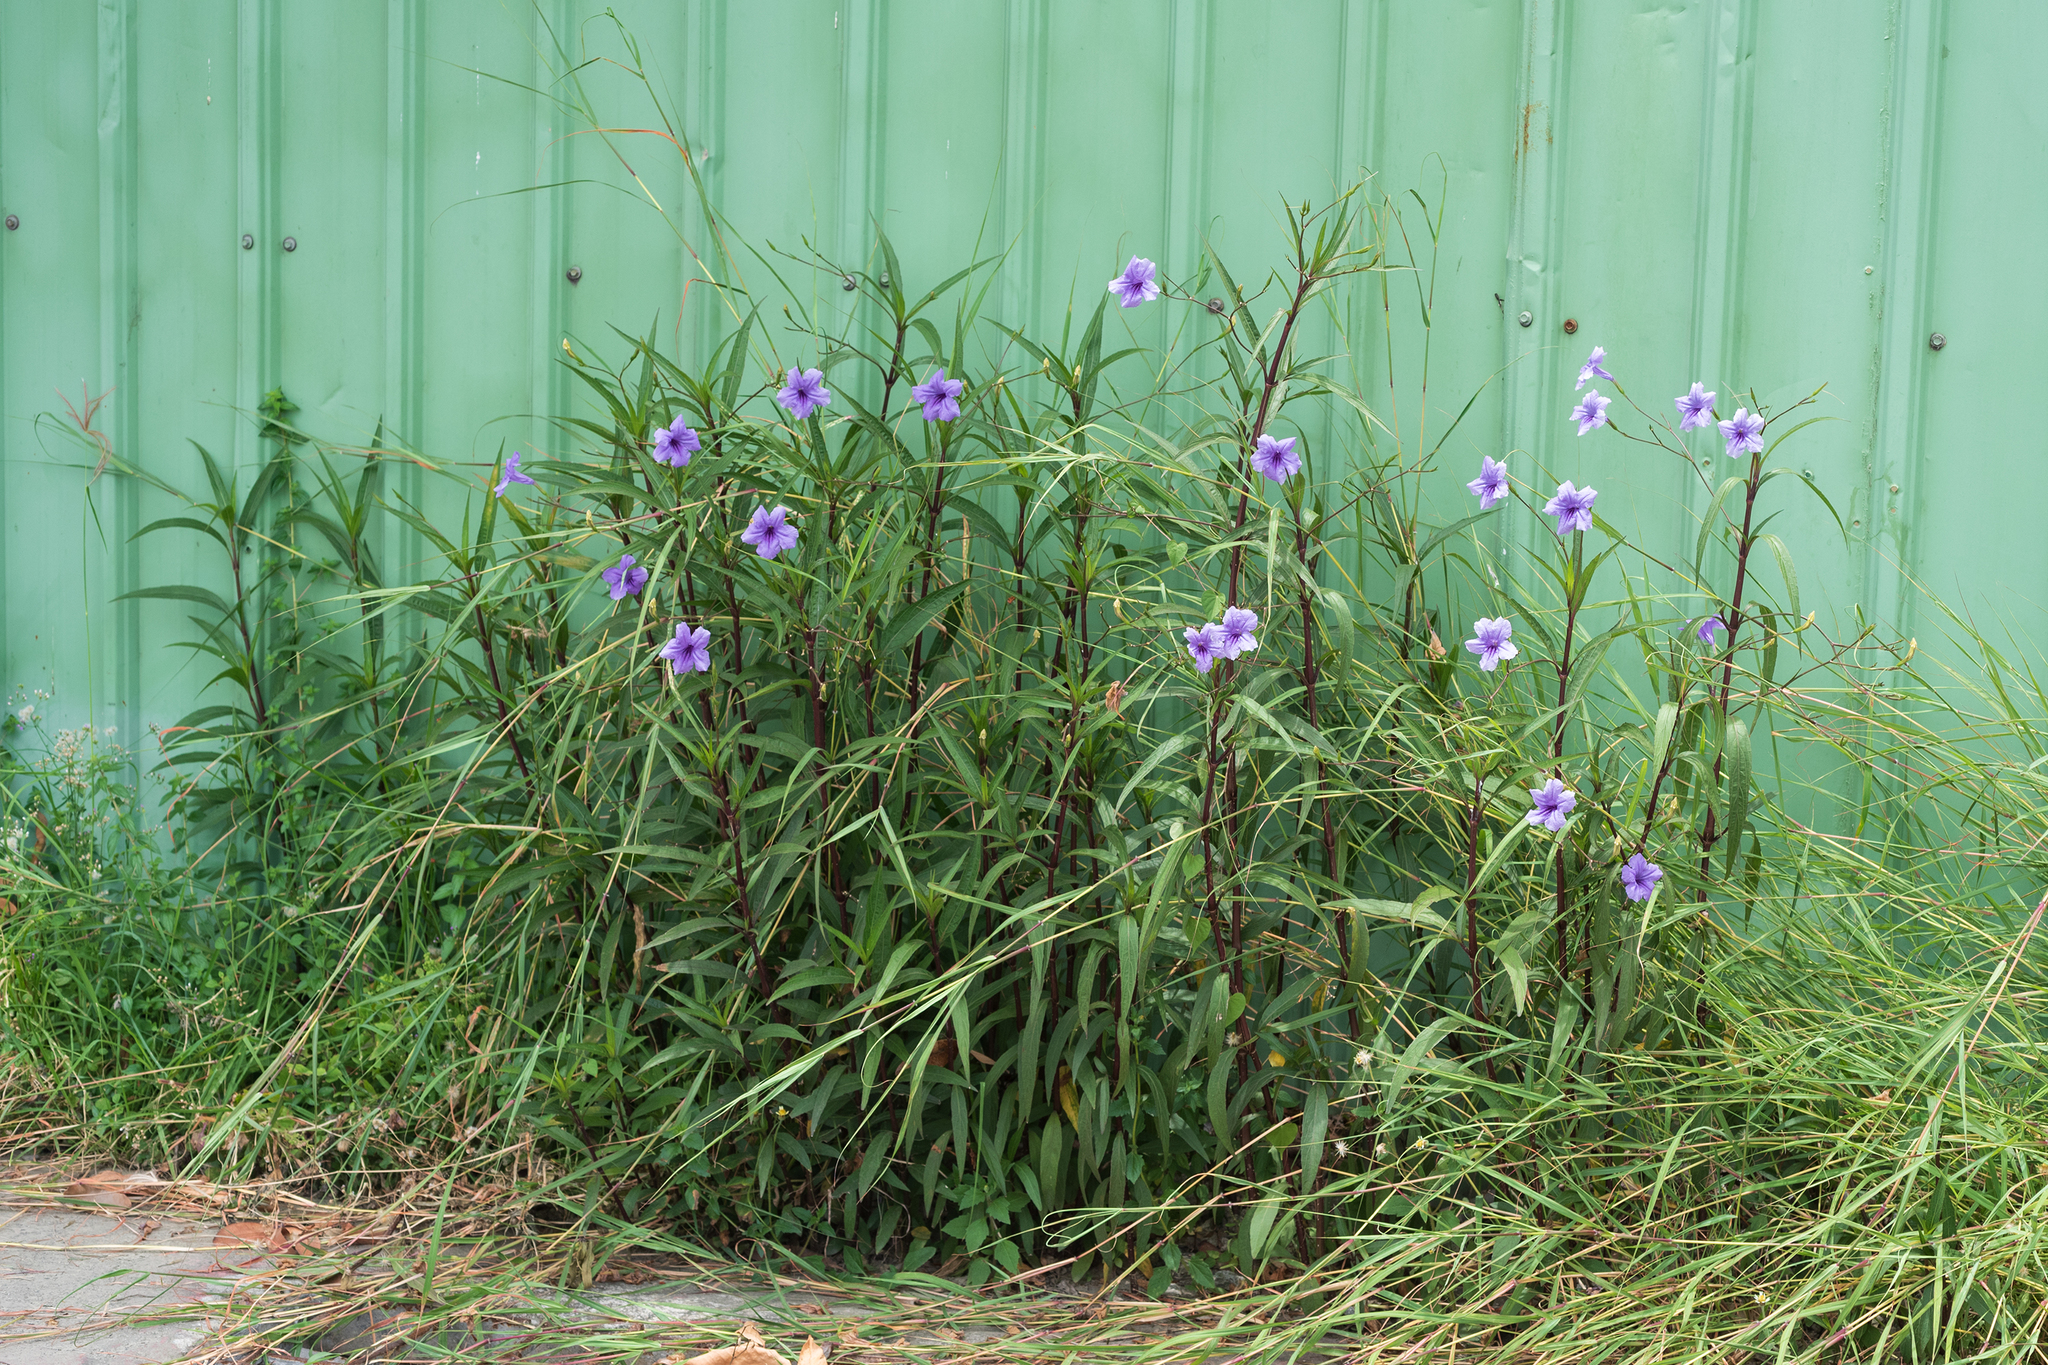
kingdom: Plantae
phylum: Tracheophyta
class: Magnoliopsida
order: Lamiales
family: Acanthaceae
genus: Ruellia
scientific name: Ruellia simplex
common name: Softseed wild petunia
